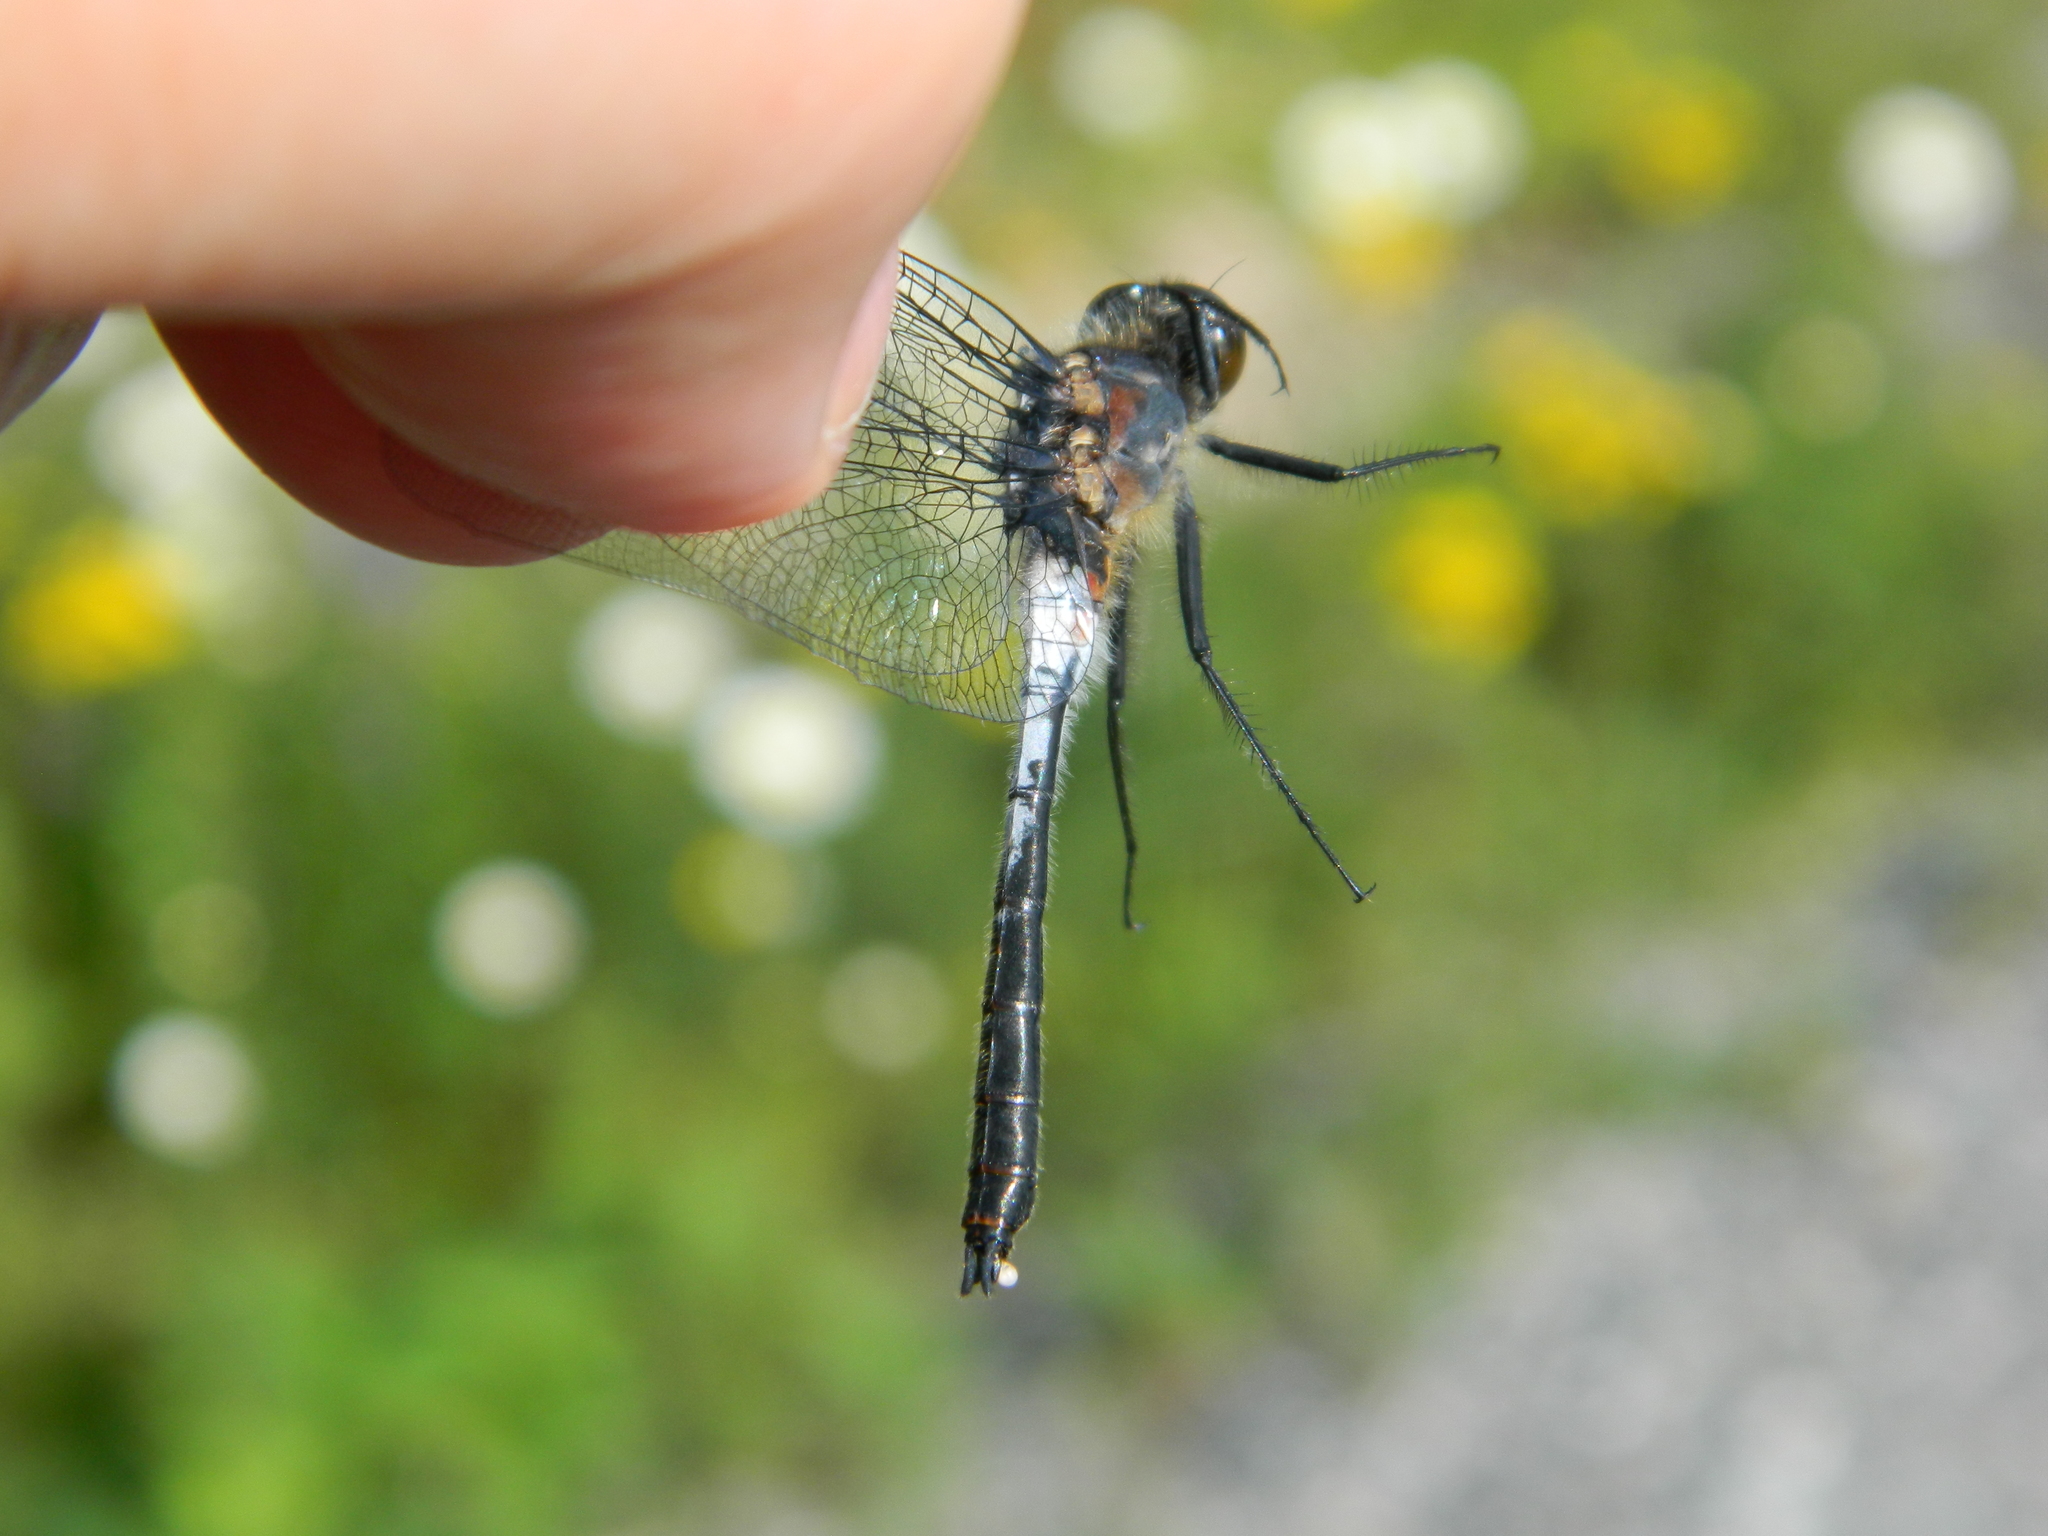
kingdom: Animalia
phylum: Arthropoda
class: Insecta
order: Odonata
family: Libellulidae
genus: Leucorrhinia
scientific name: Leucorrhinia proxima
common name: Belted whiteface
